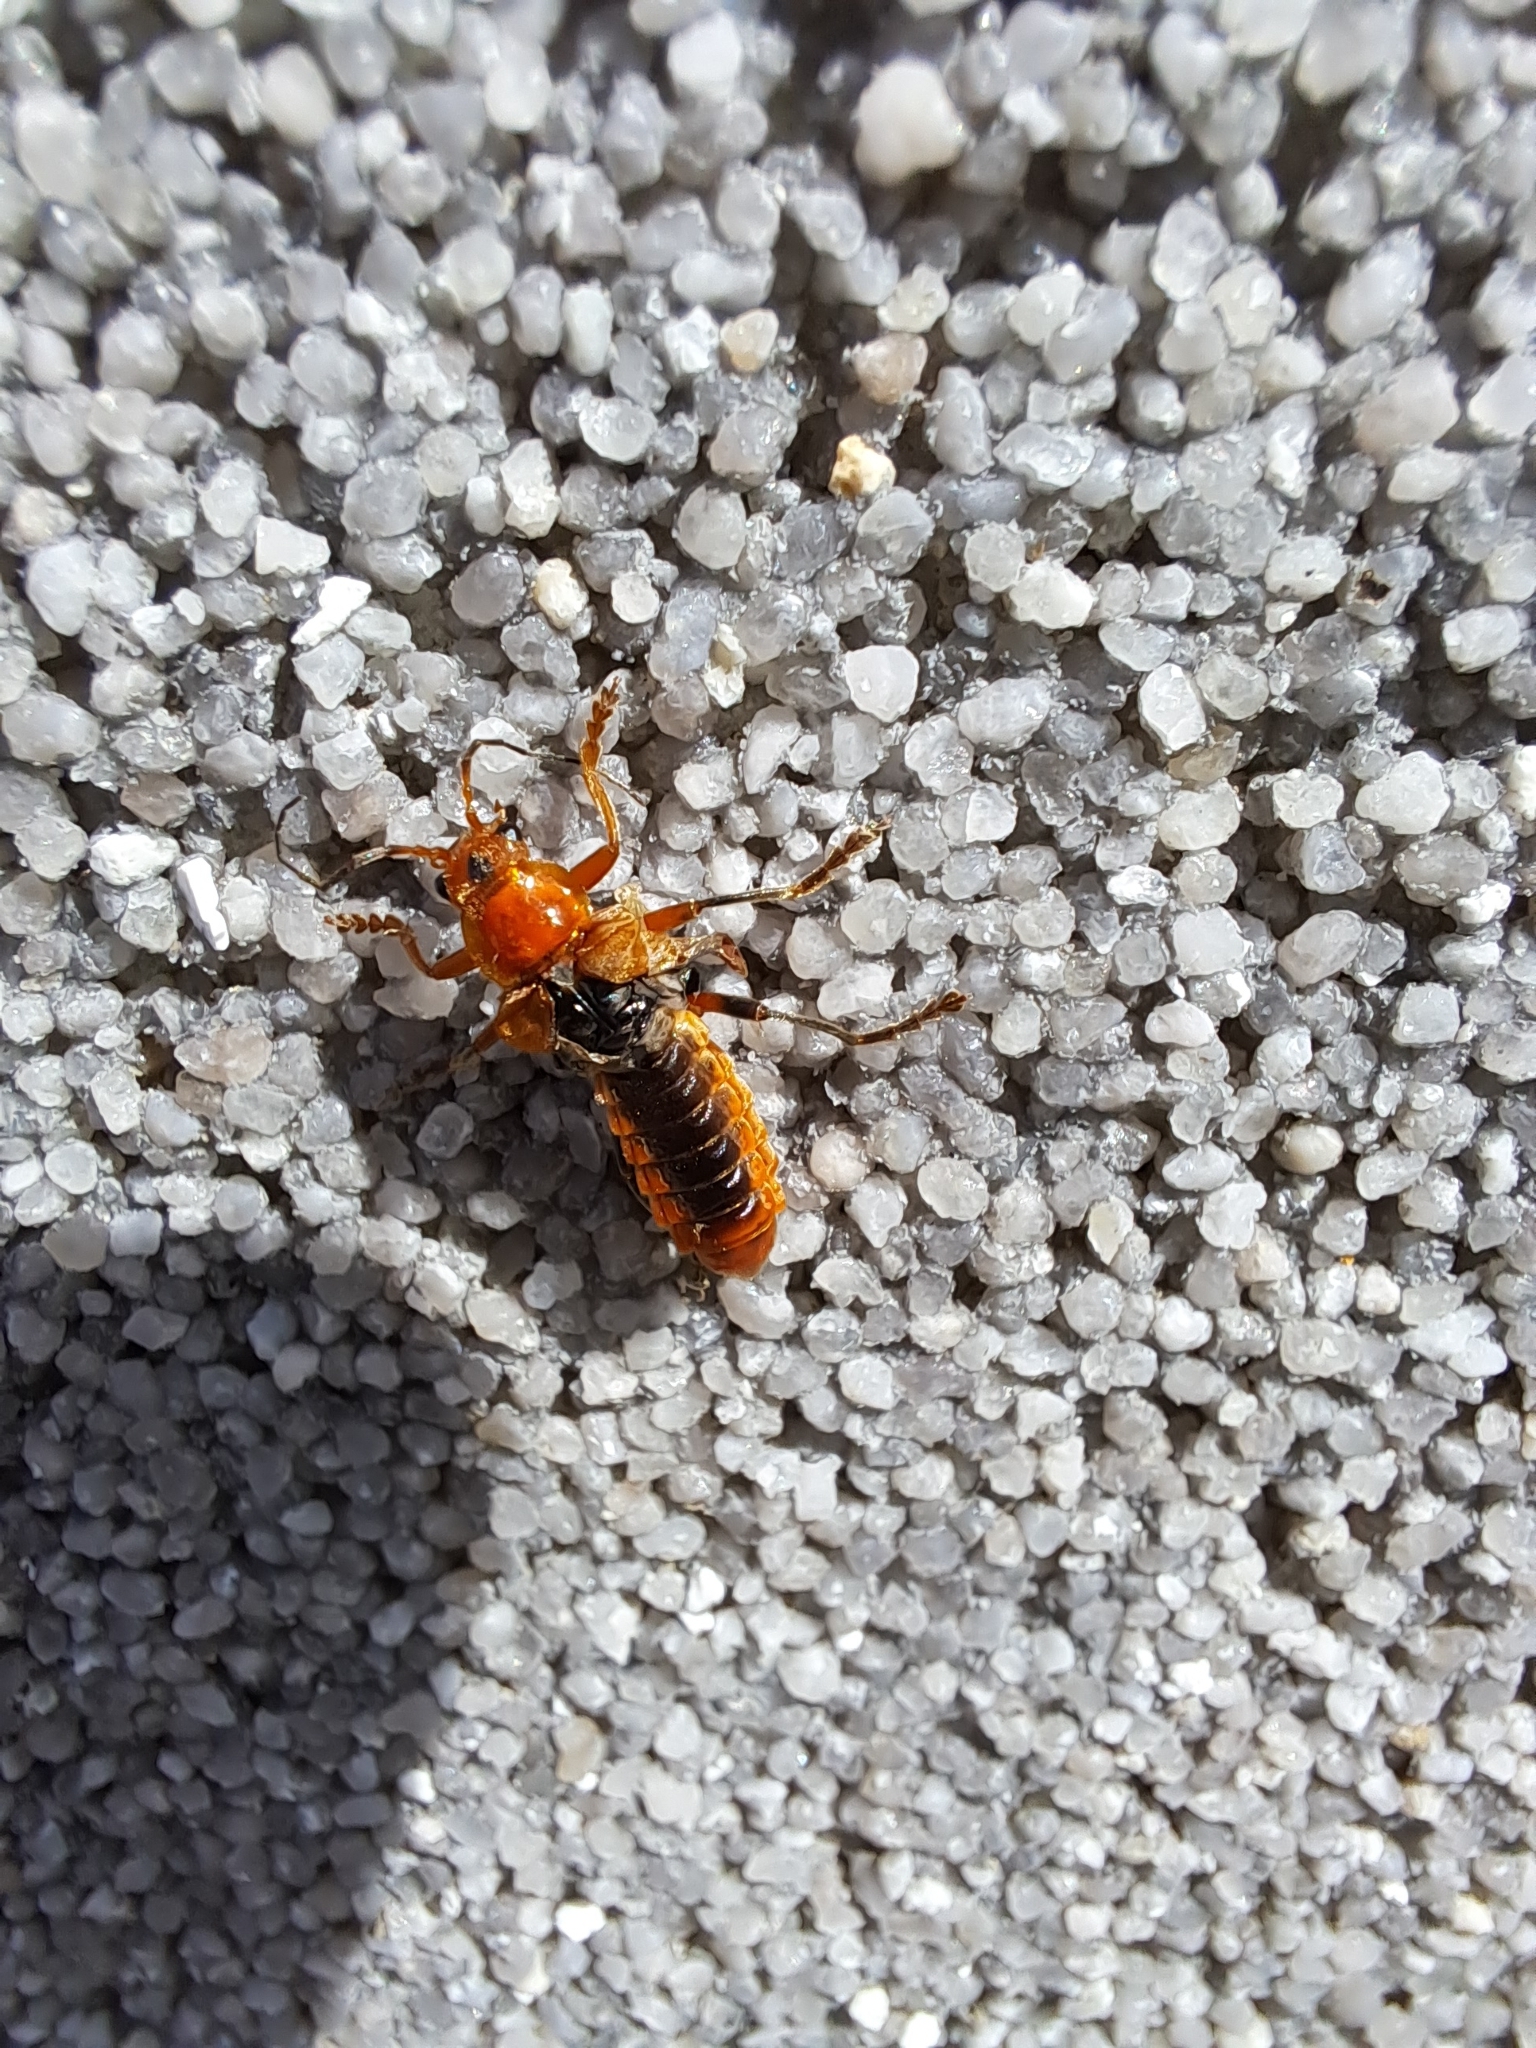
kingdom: Animalia
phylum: Arthropoda
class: Insecta
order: Coleoptera
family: Cantharidae
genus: Cantharis
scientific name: Cantharis livida
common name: Livid soldier beetle
